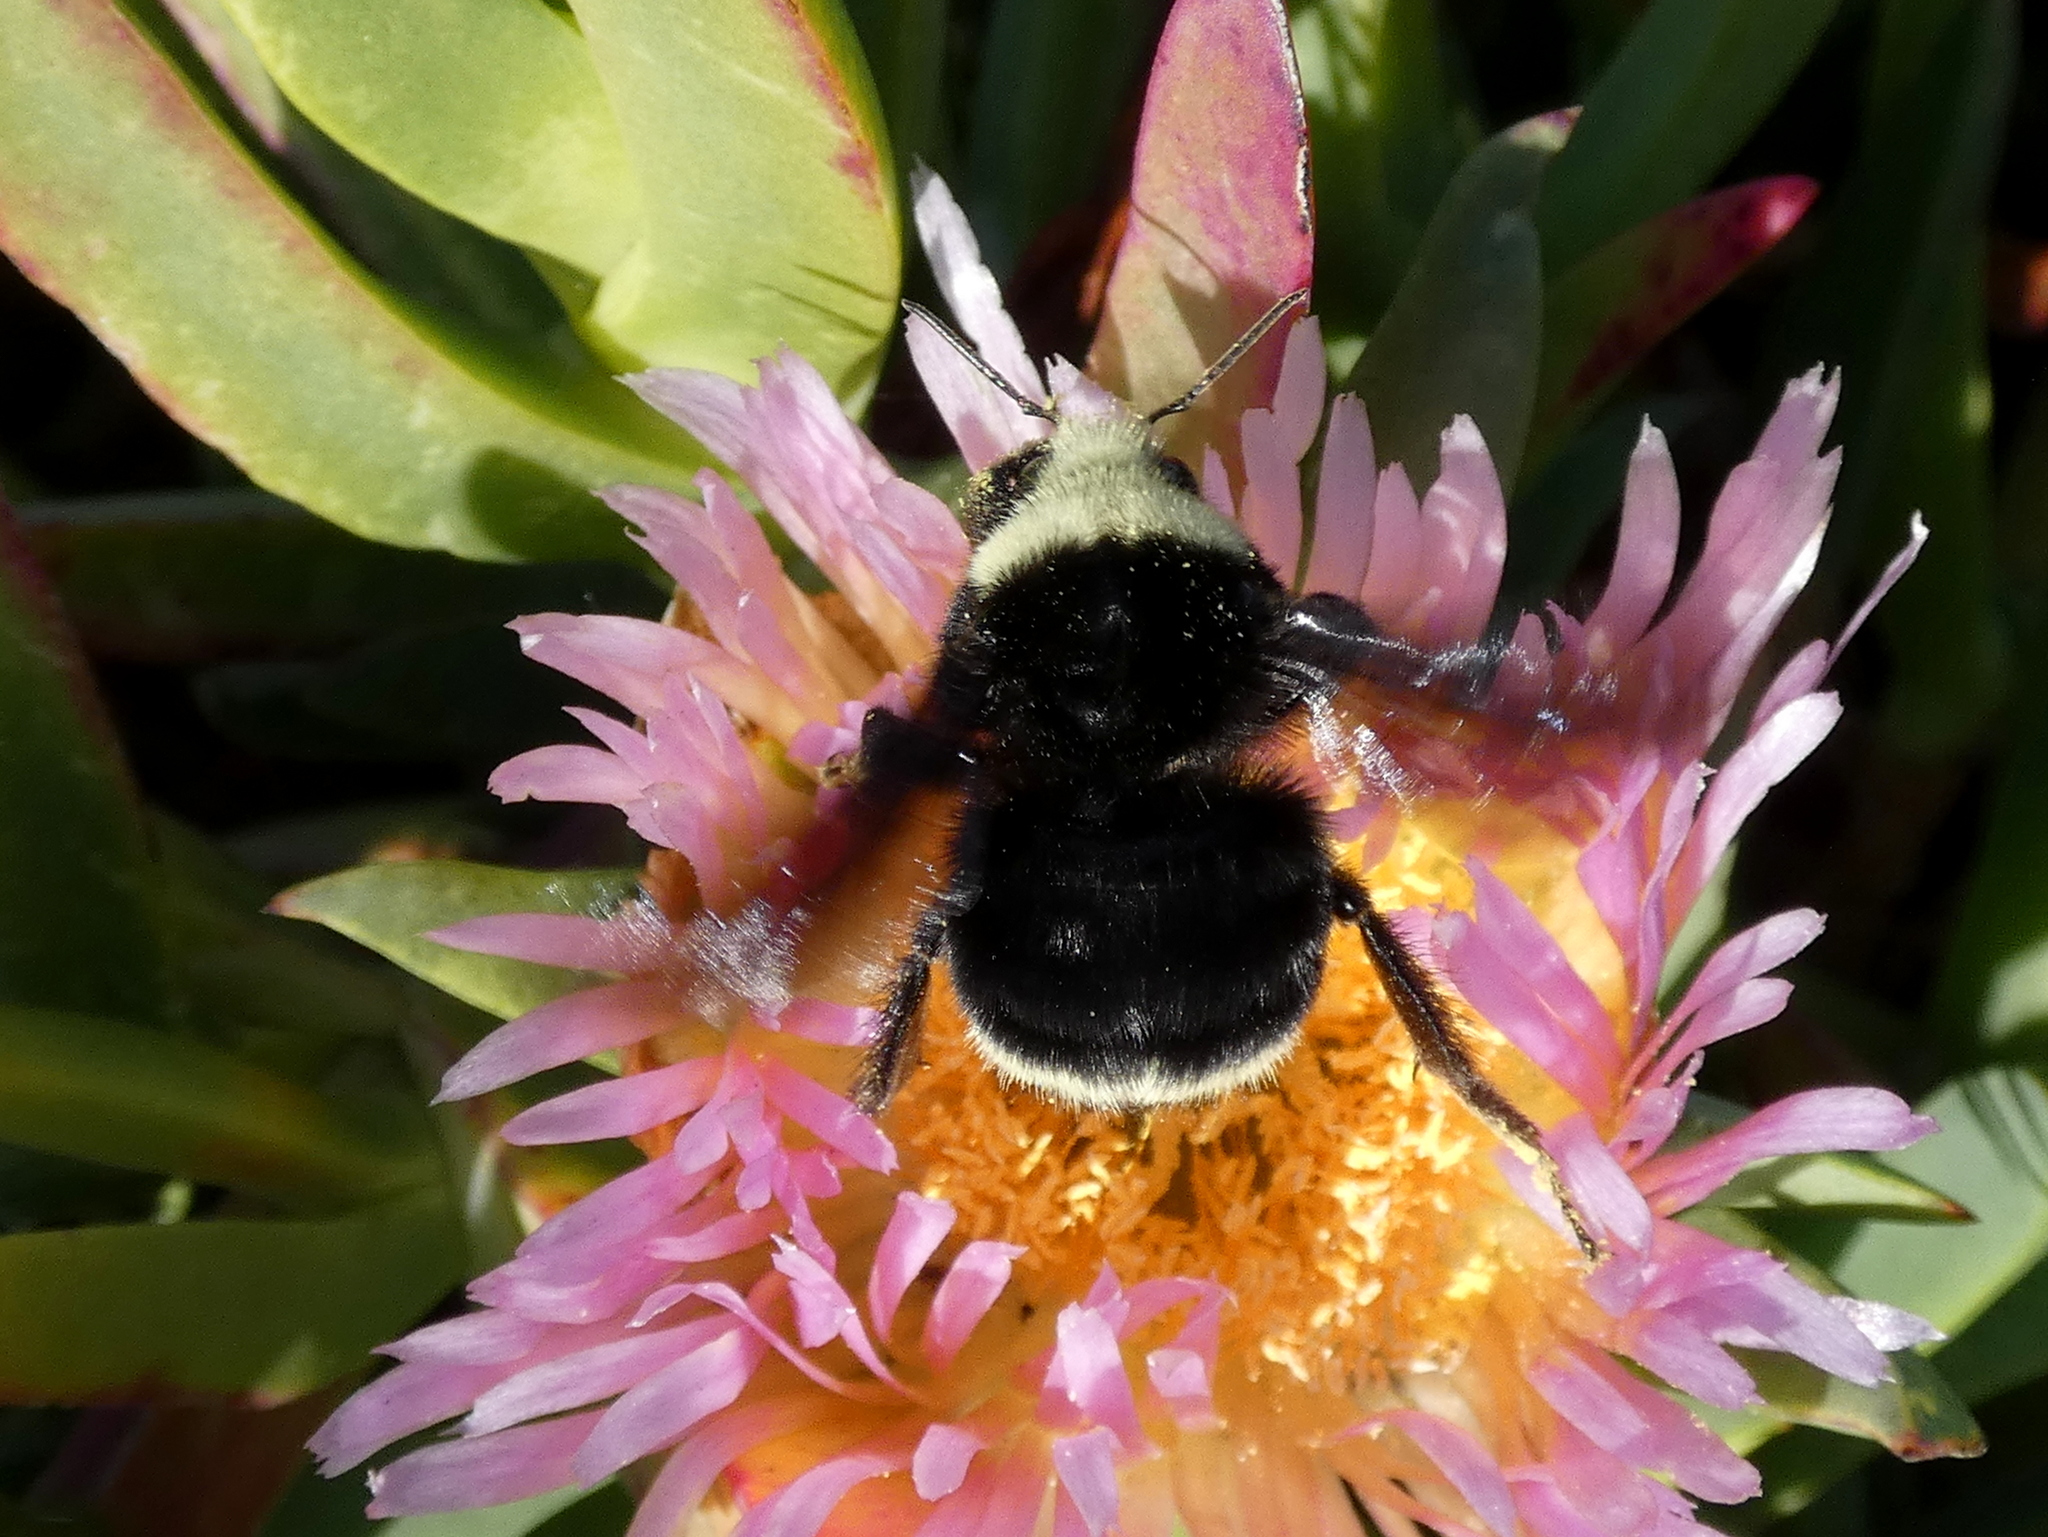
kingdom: Animalia
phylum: Arthropoda
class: Insecta
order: Hymenoptera
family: Apidae
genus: Pyrobombus
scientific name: Pyrobombus
